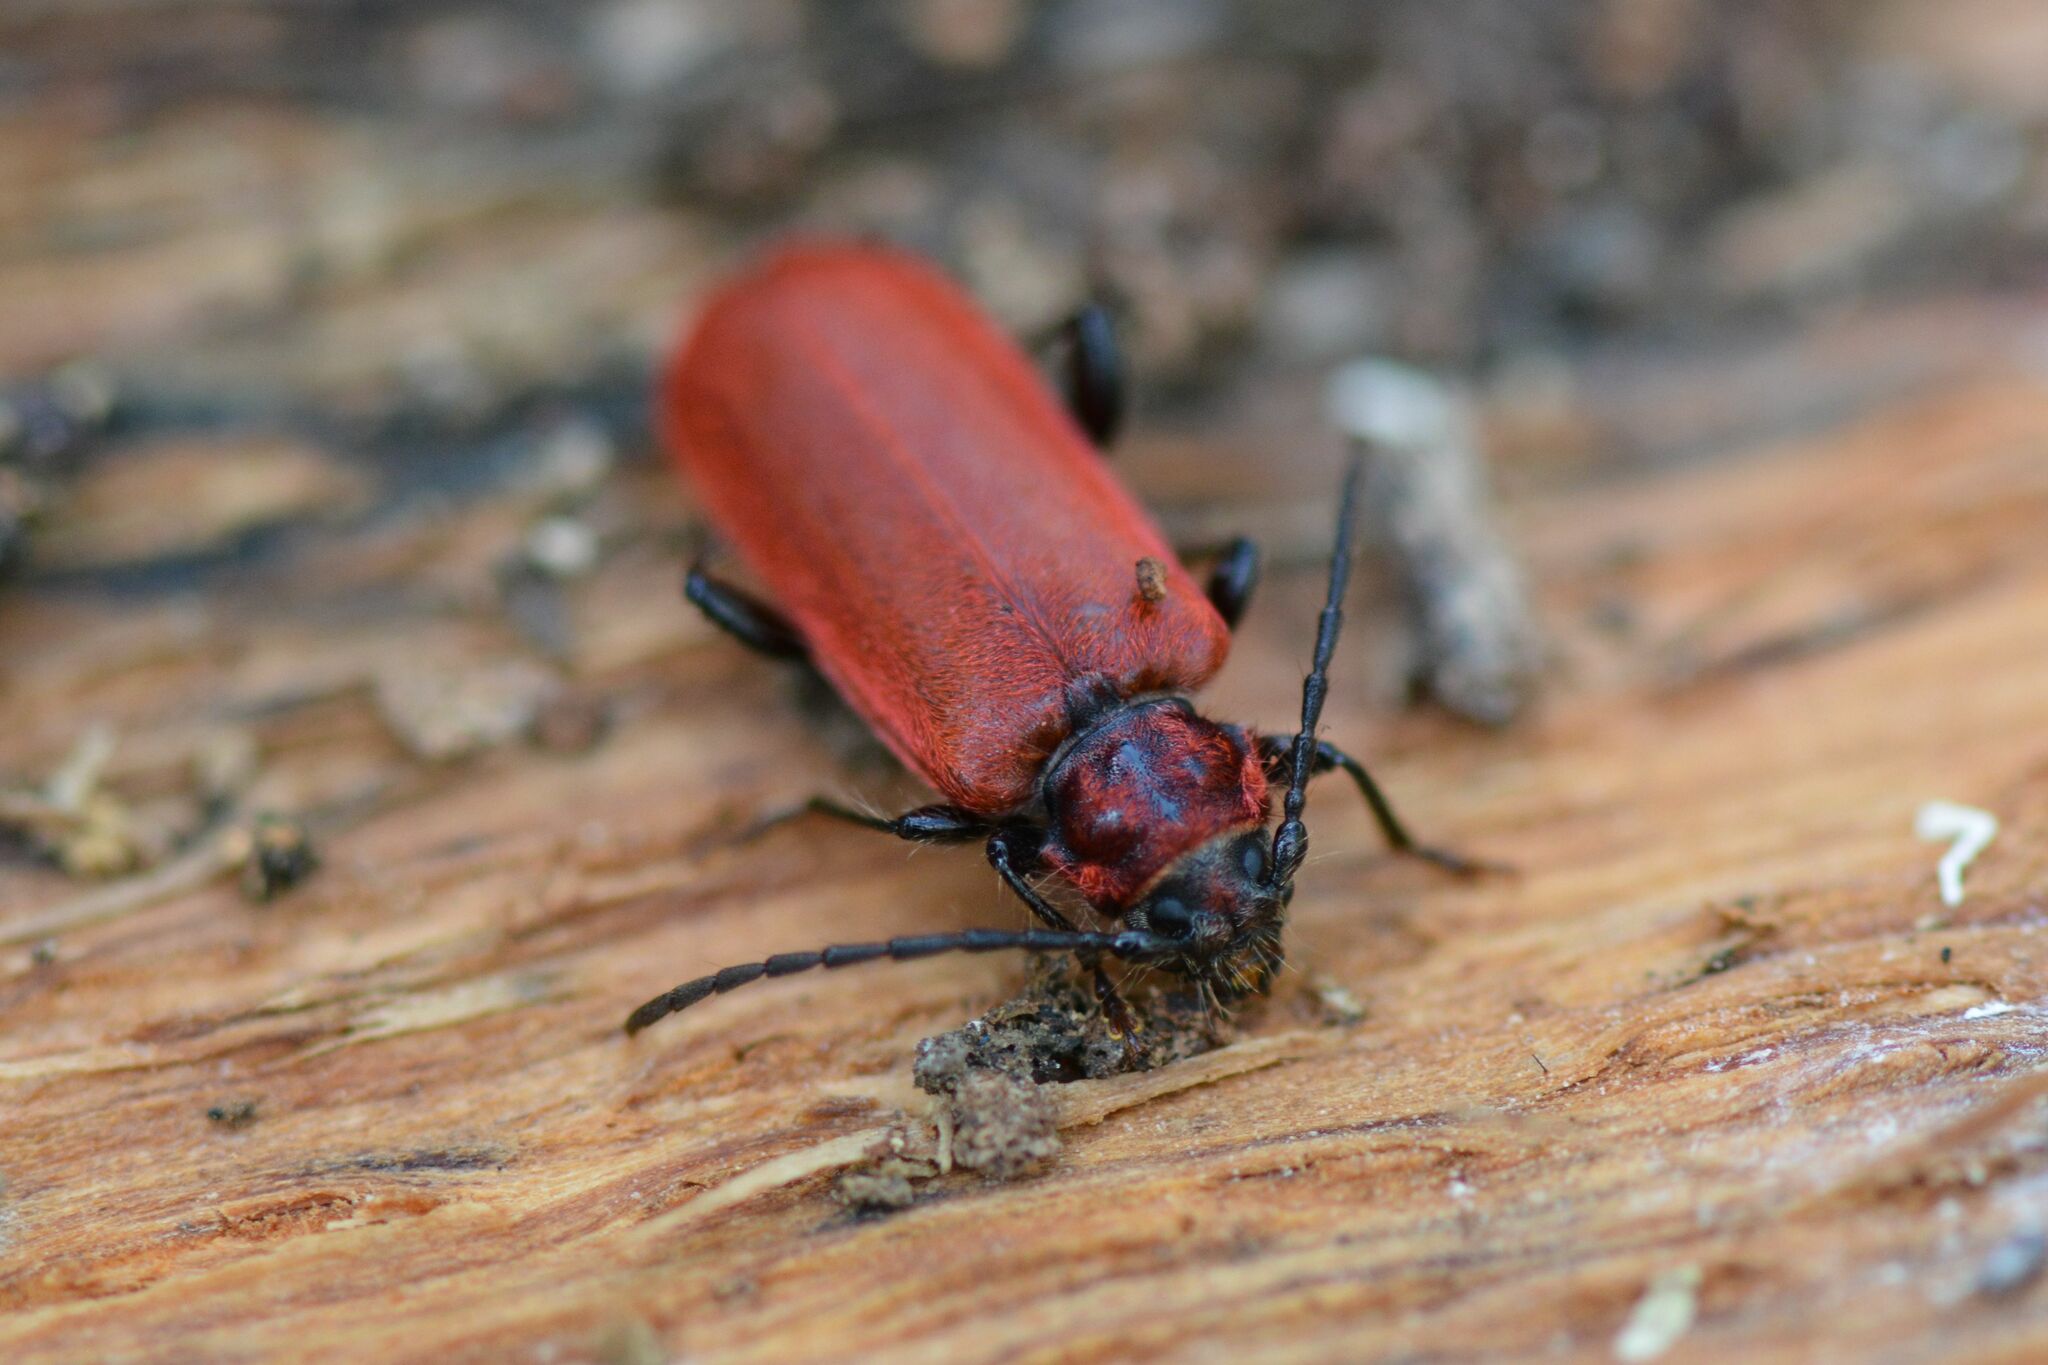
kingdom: Animalia
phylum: Arthropoda
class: Insecta
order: Coleoptera
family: Cerambycidae
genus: Pyrrhidium
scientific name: Pyrrhidium sanguineum
